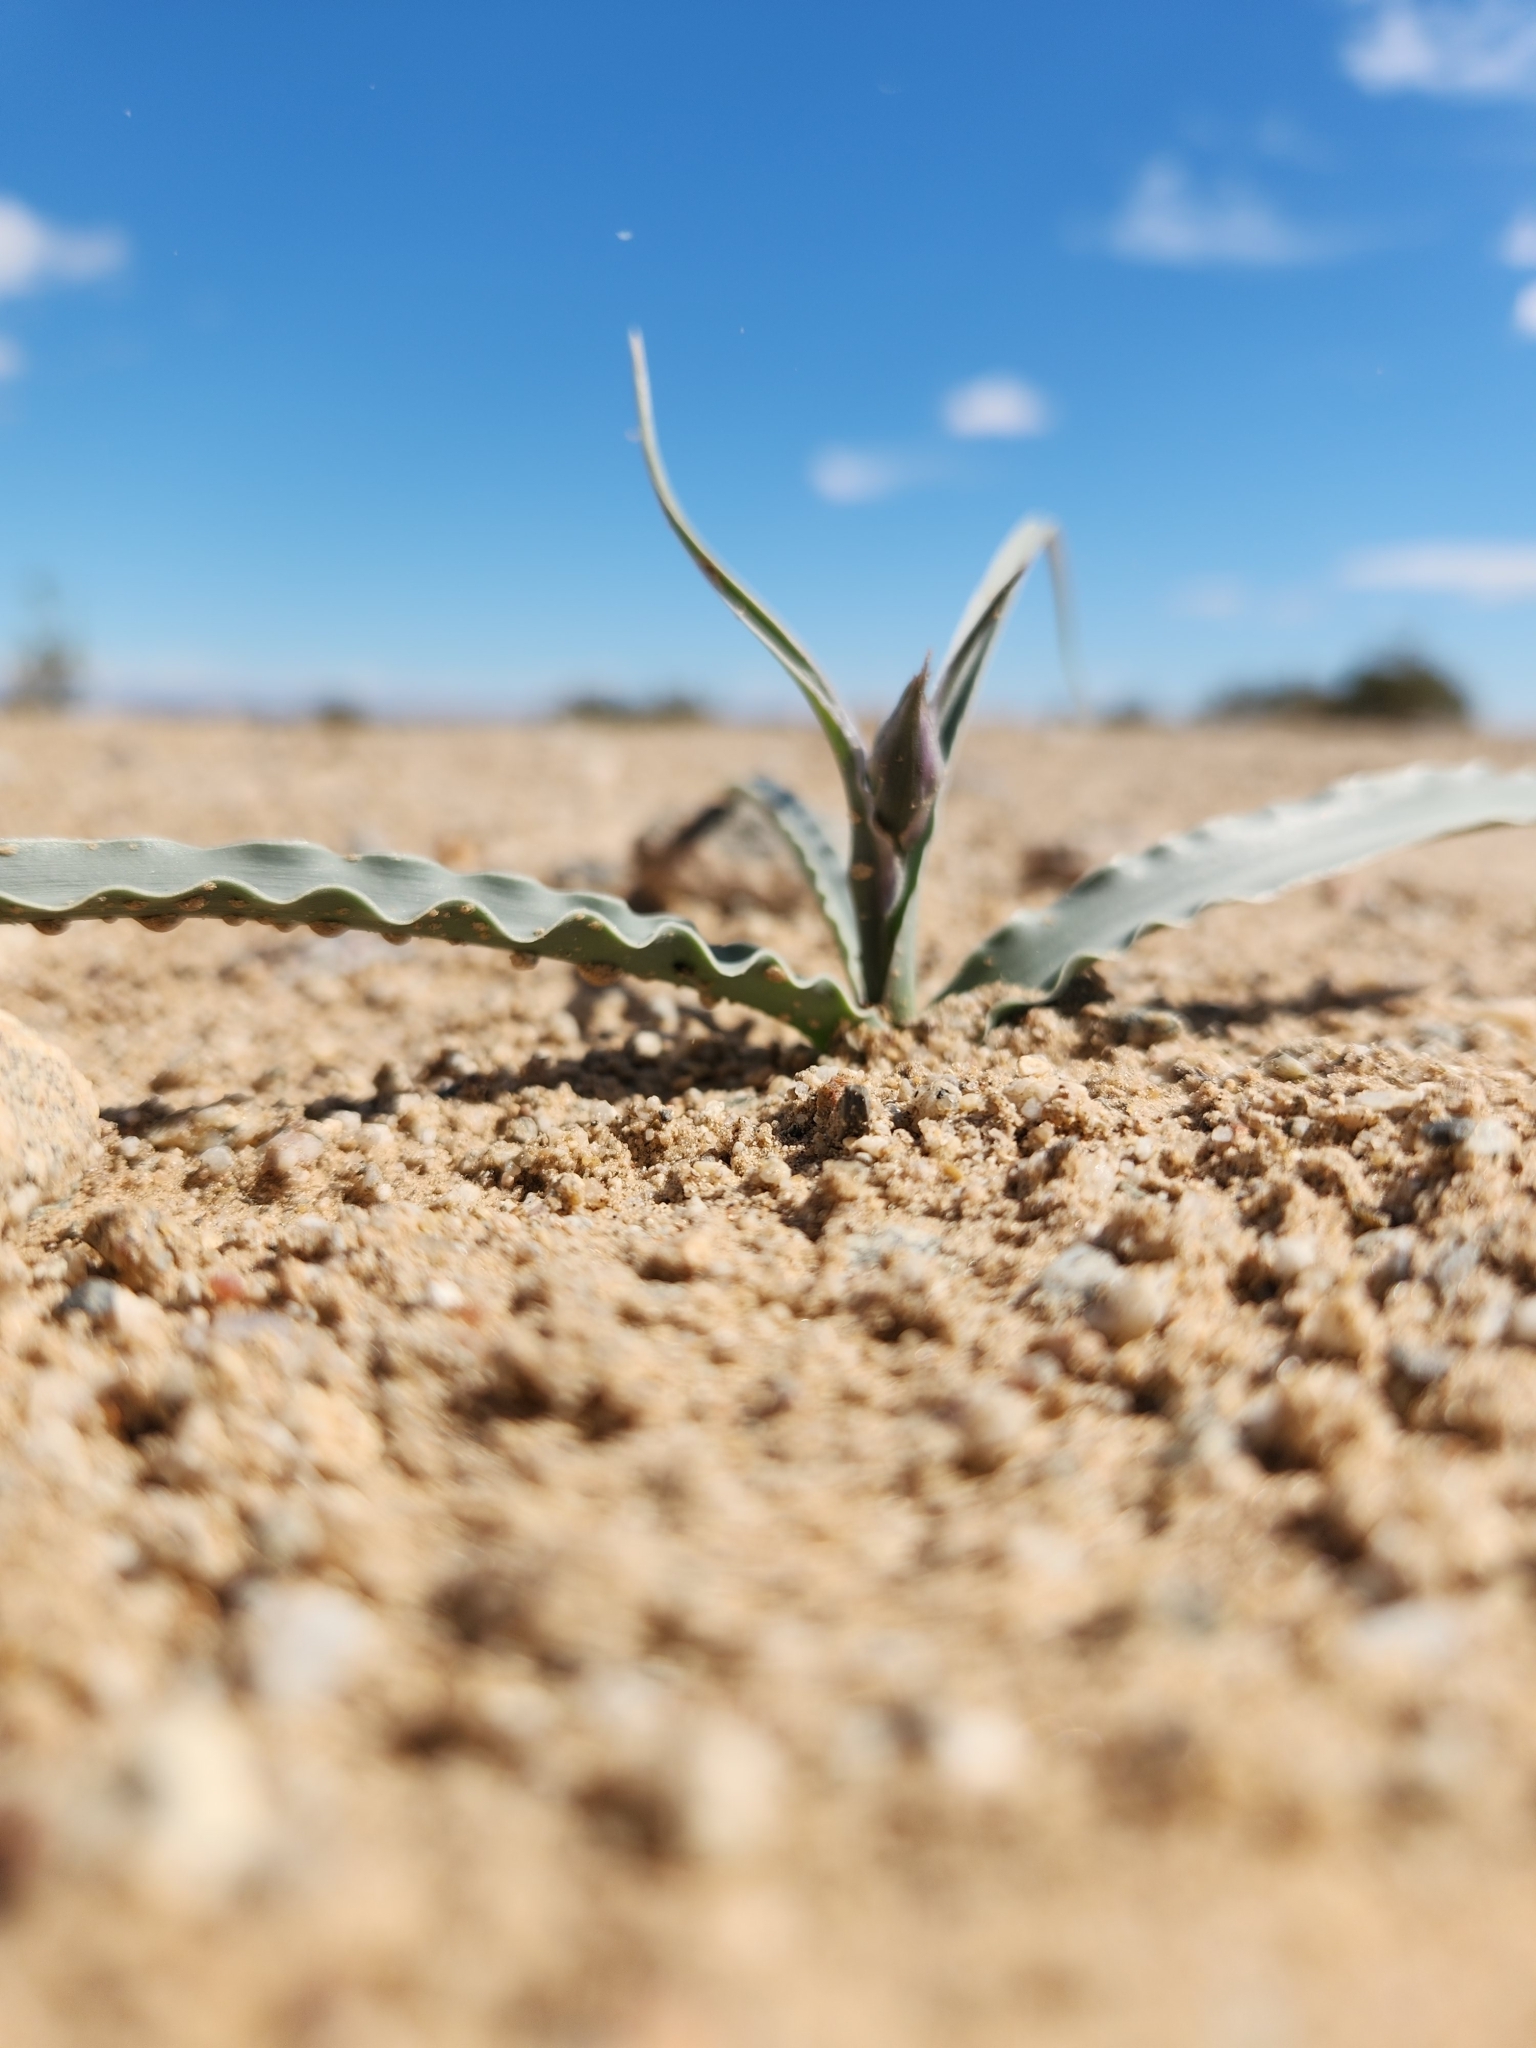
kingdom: Plantae
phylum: Tracheophyta
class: Liliopsida
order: Asparagales
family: Asparagaceae
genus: Hesperocallis
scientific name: Hesperocallis undulata
